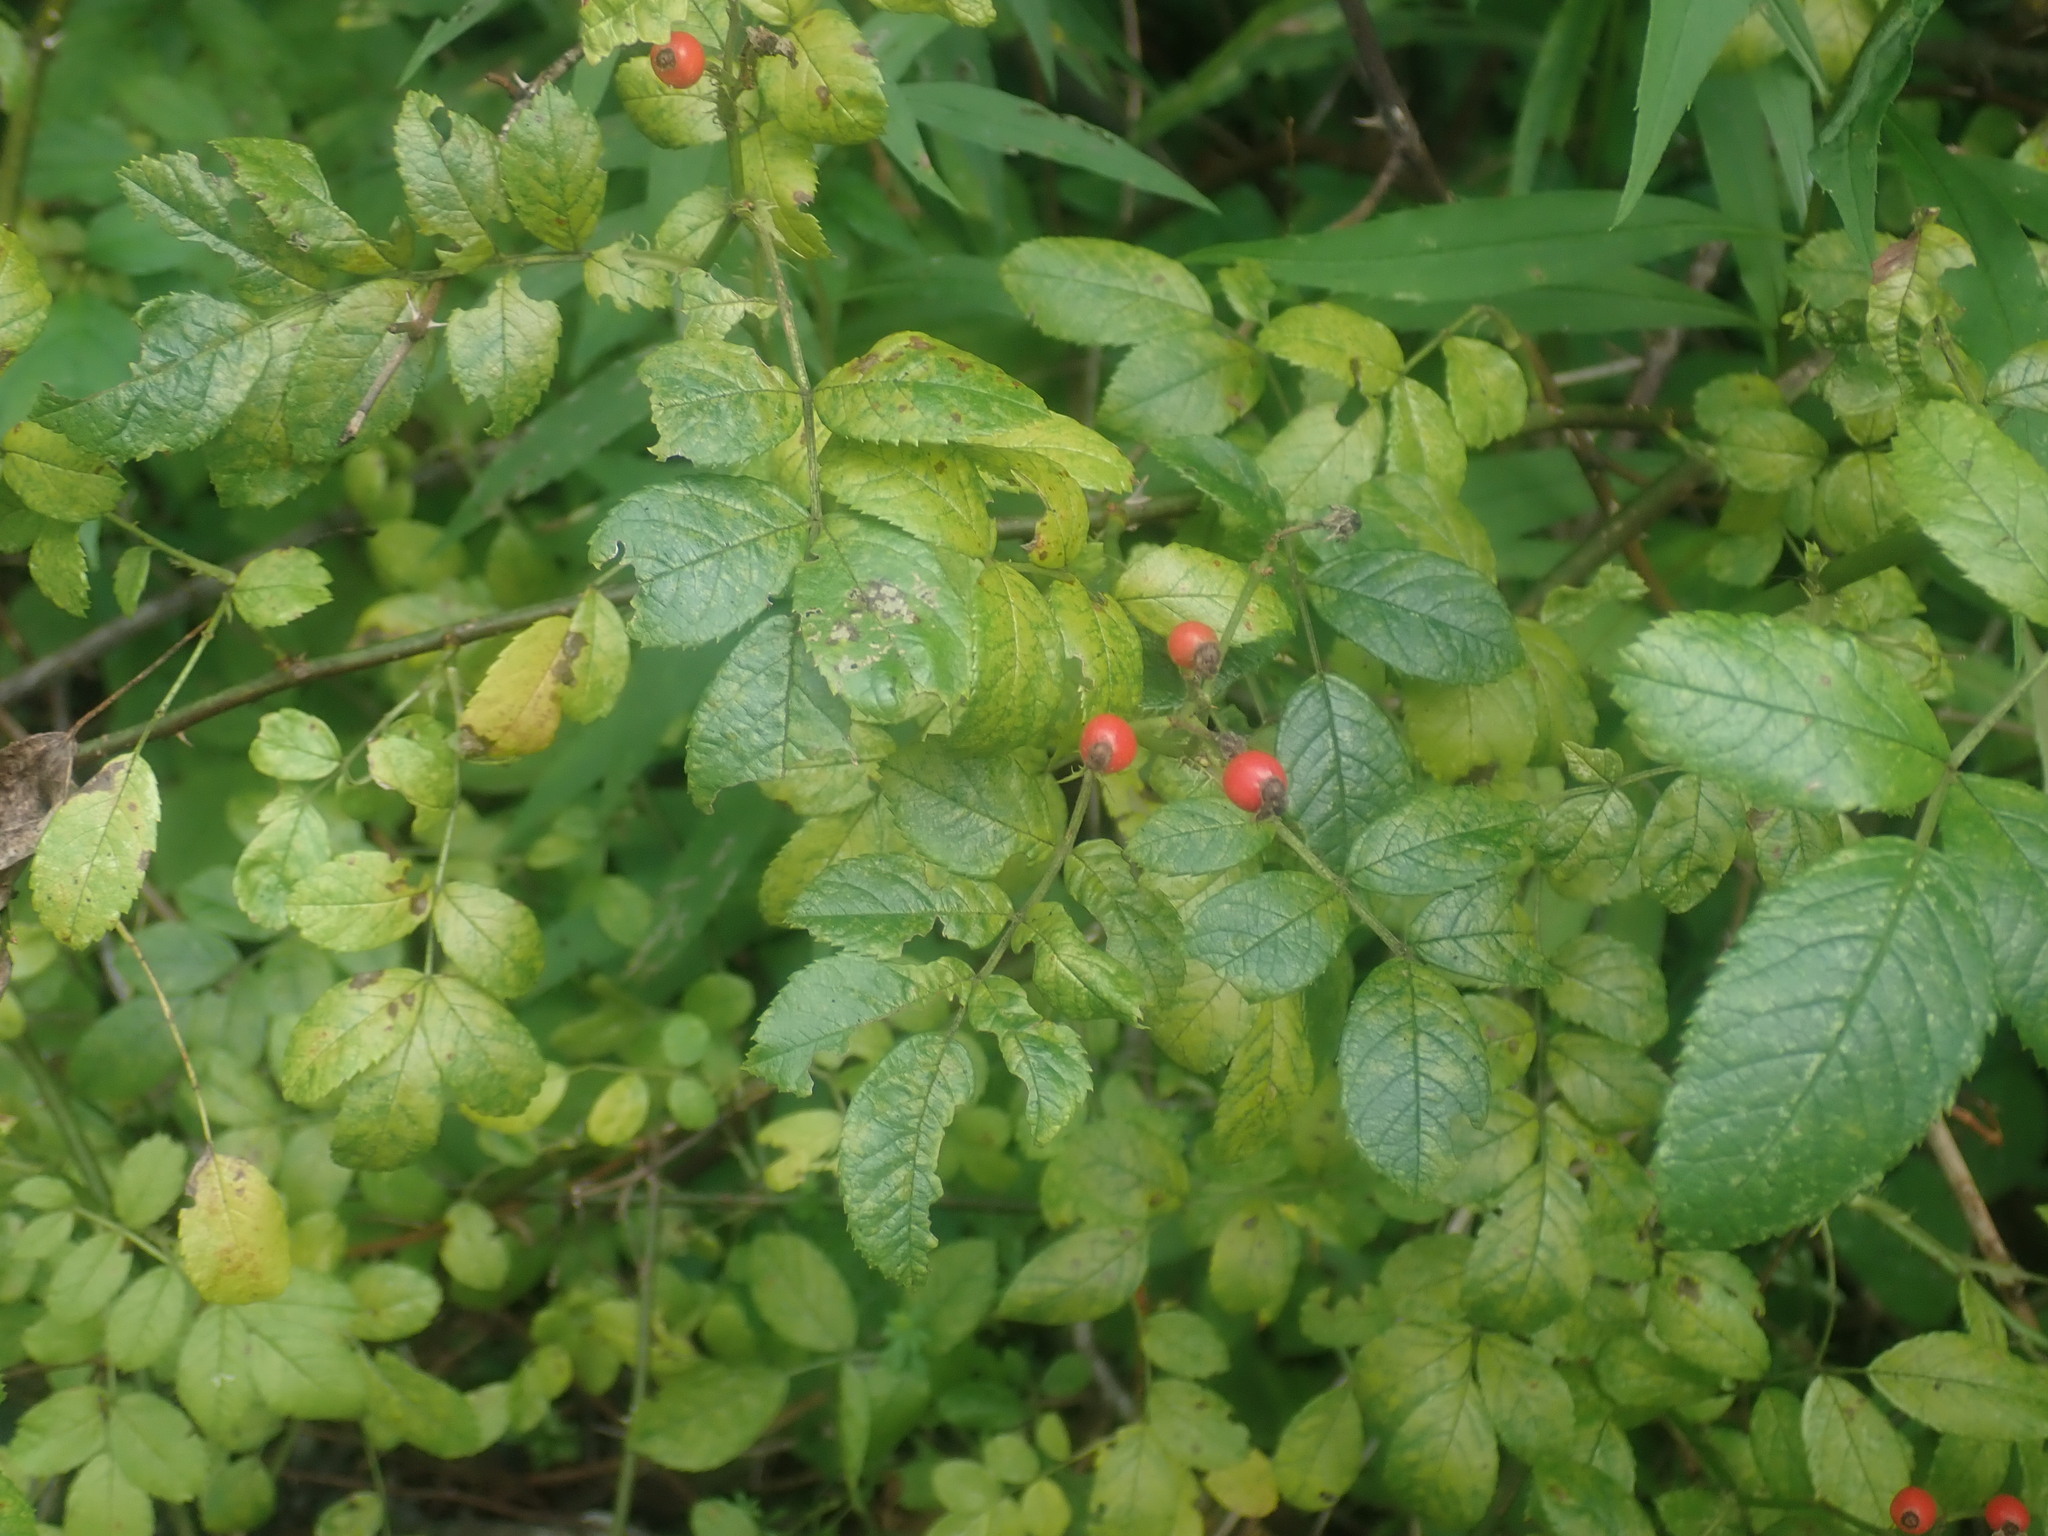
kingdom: Plantae
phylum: Tracheophyta
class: Magnoliopsida
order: Rosales
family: Rosaceae
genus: Rosa
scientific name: Rosa multiflora
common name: Multiflora rose
